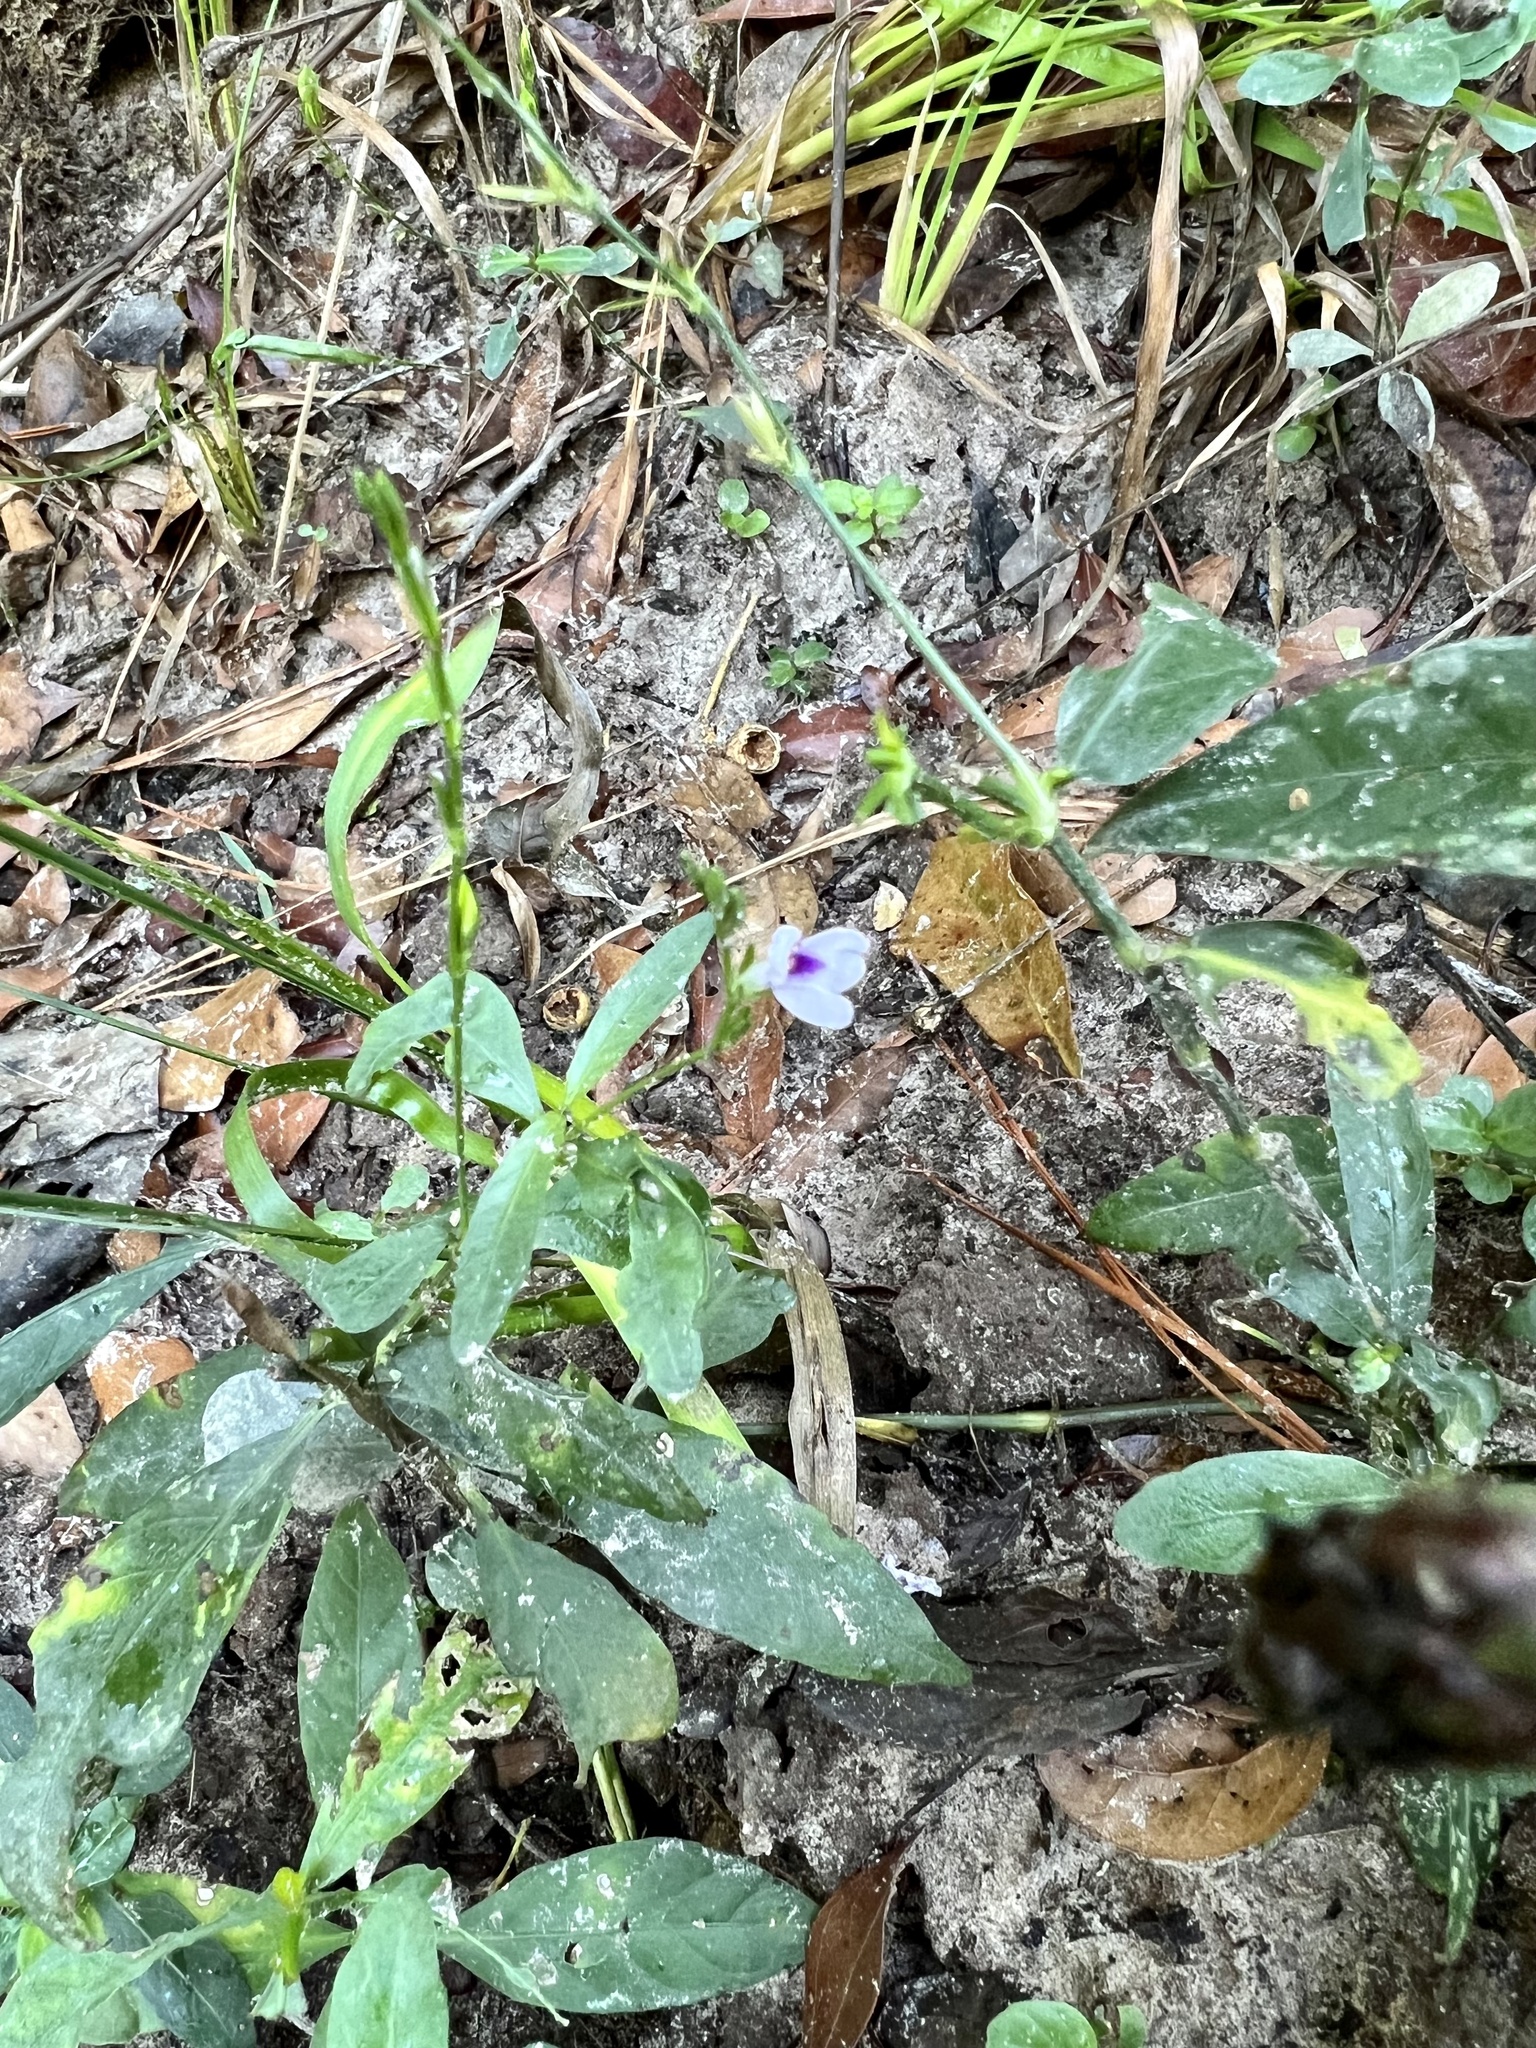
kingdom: Plantae
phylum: Tracheophyta
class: Magnoliopsida
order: Lamiales
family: Acanthaceae
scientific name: Acanthaceae
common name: Acanthaceae
